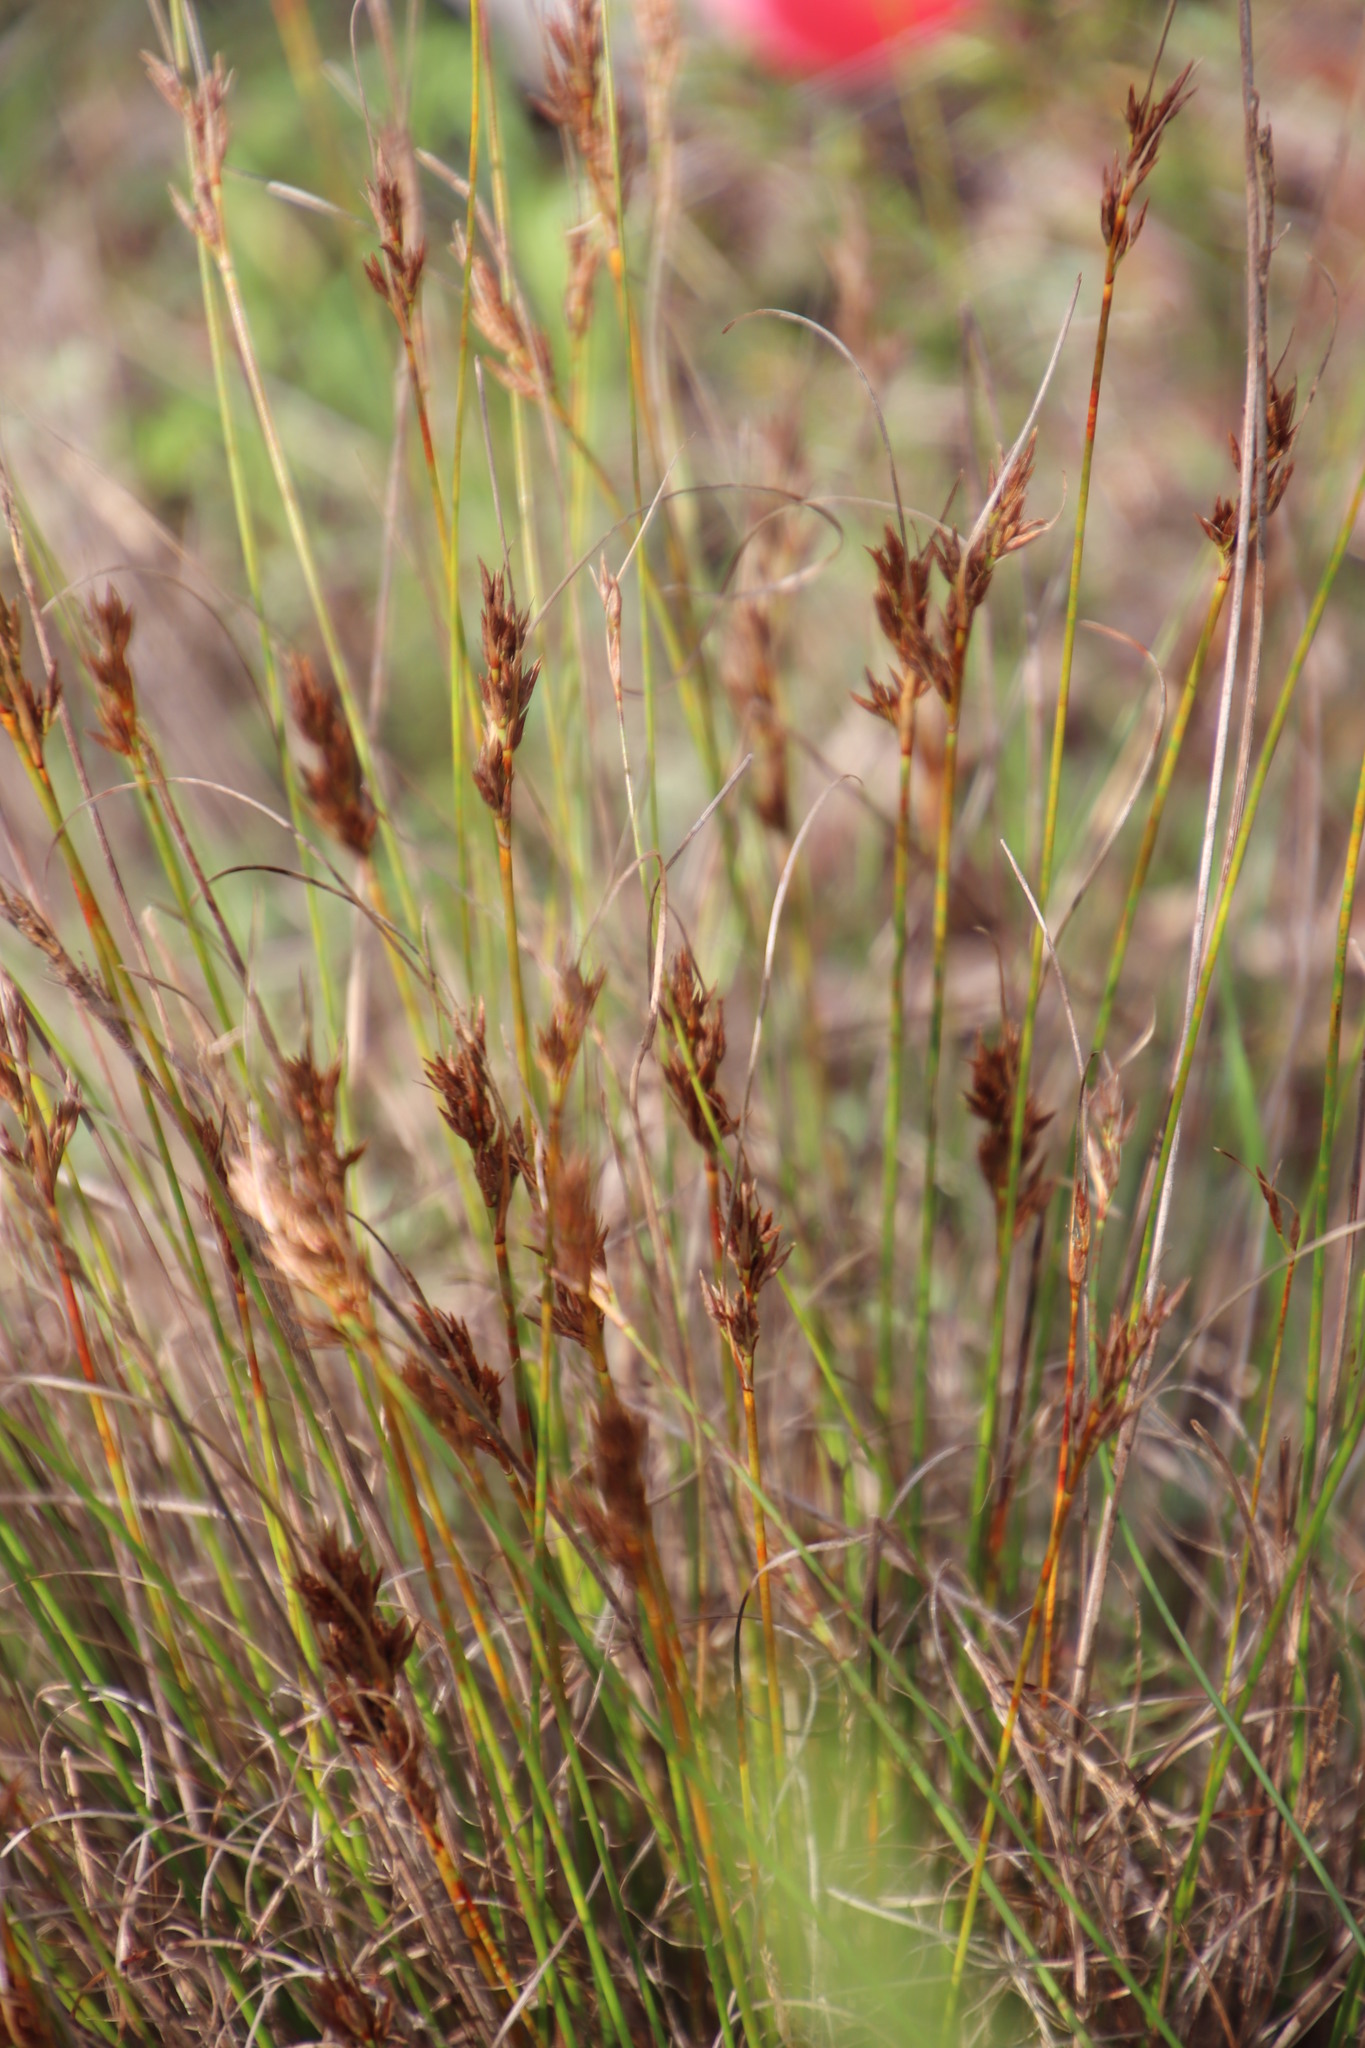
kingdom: Plantae
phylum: Tracheophyta
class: Liliopsida
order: Poales
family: Cyperaceae
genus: Schoenus
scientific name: Schoenus auritus
